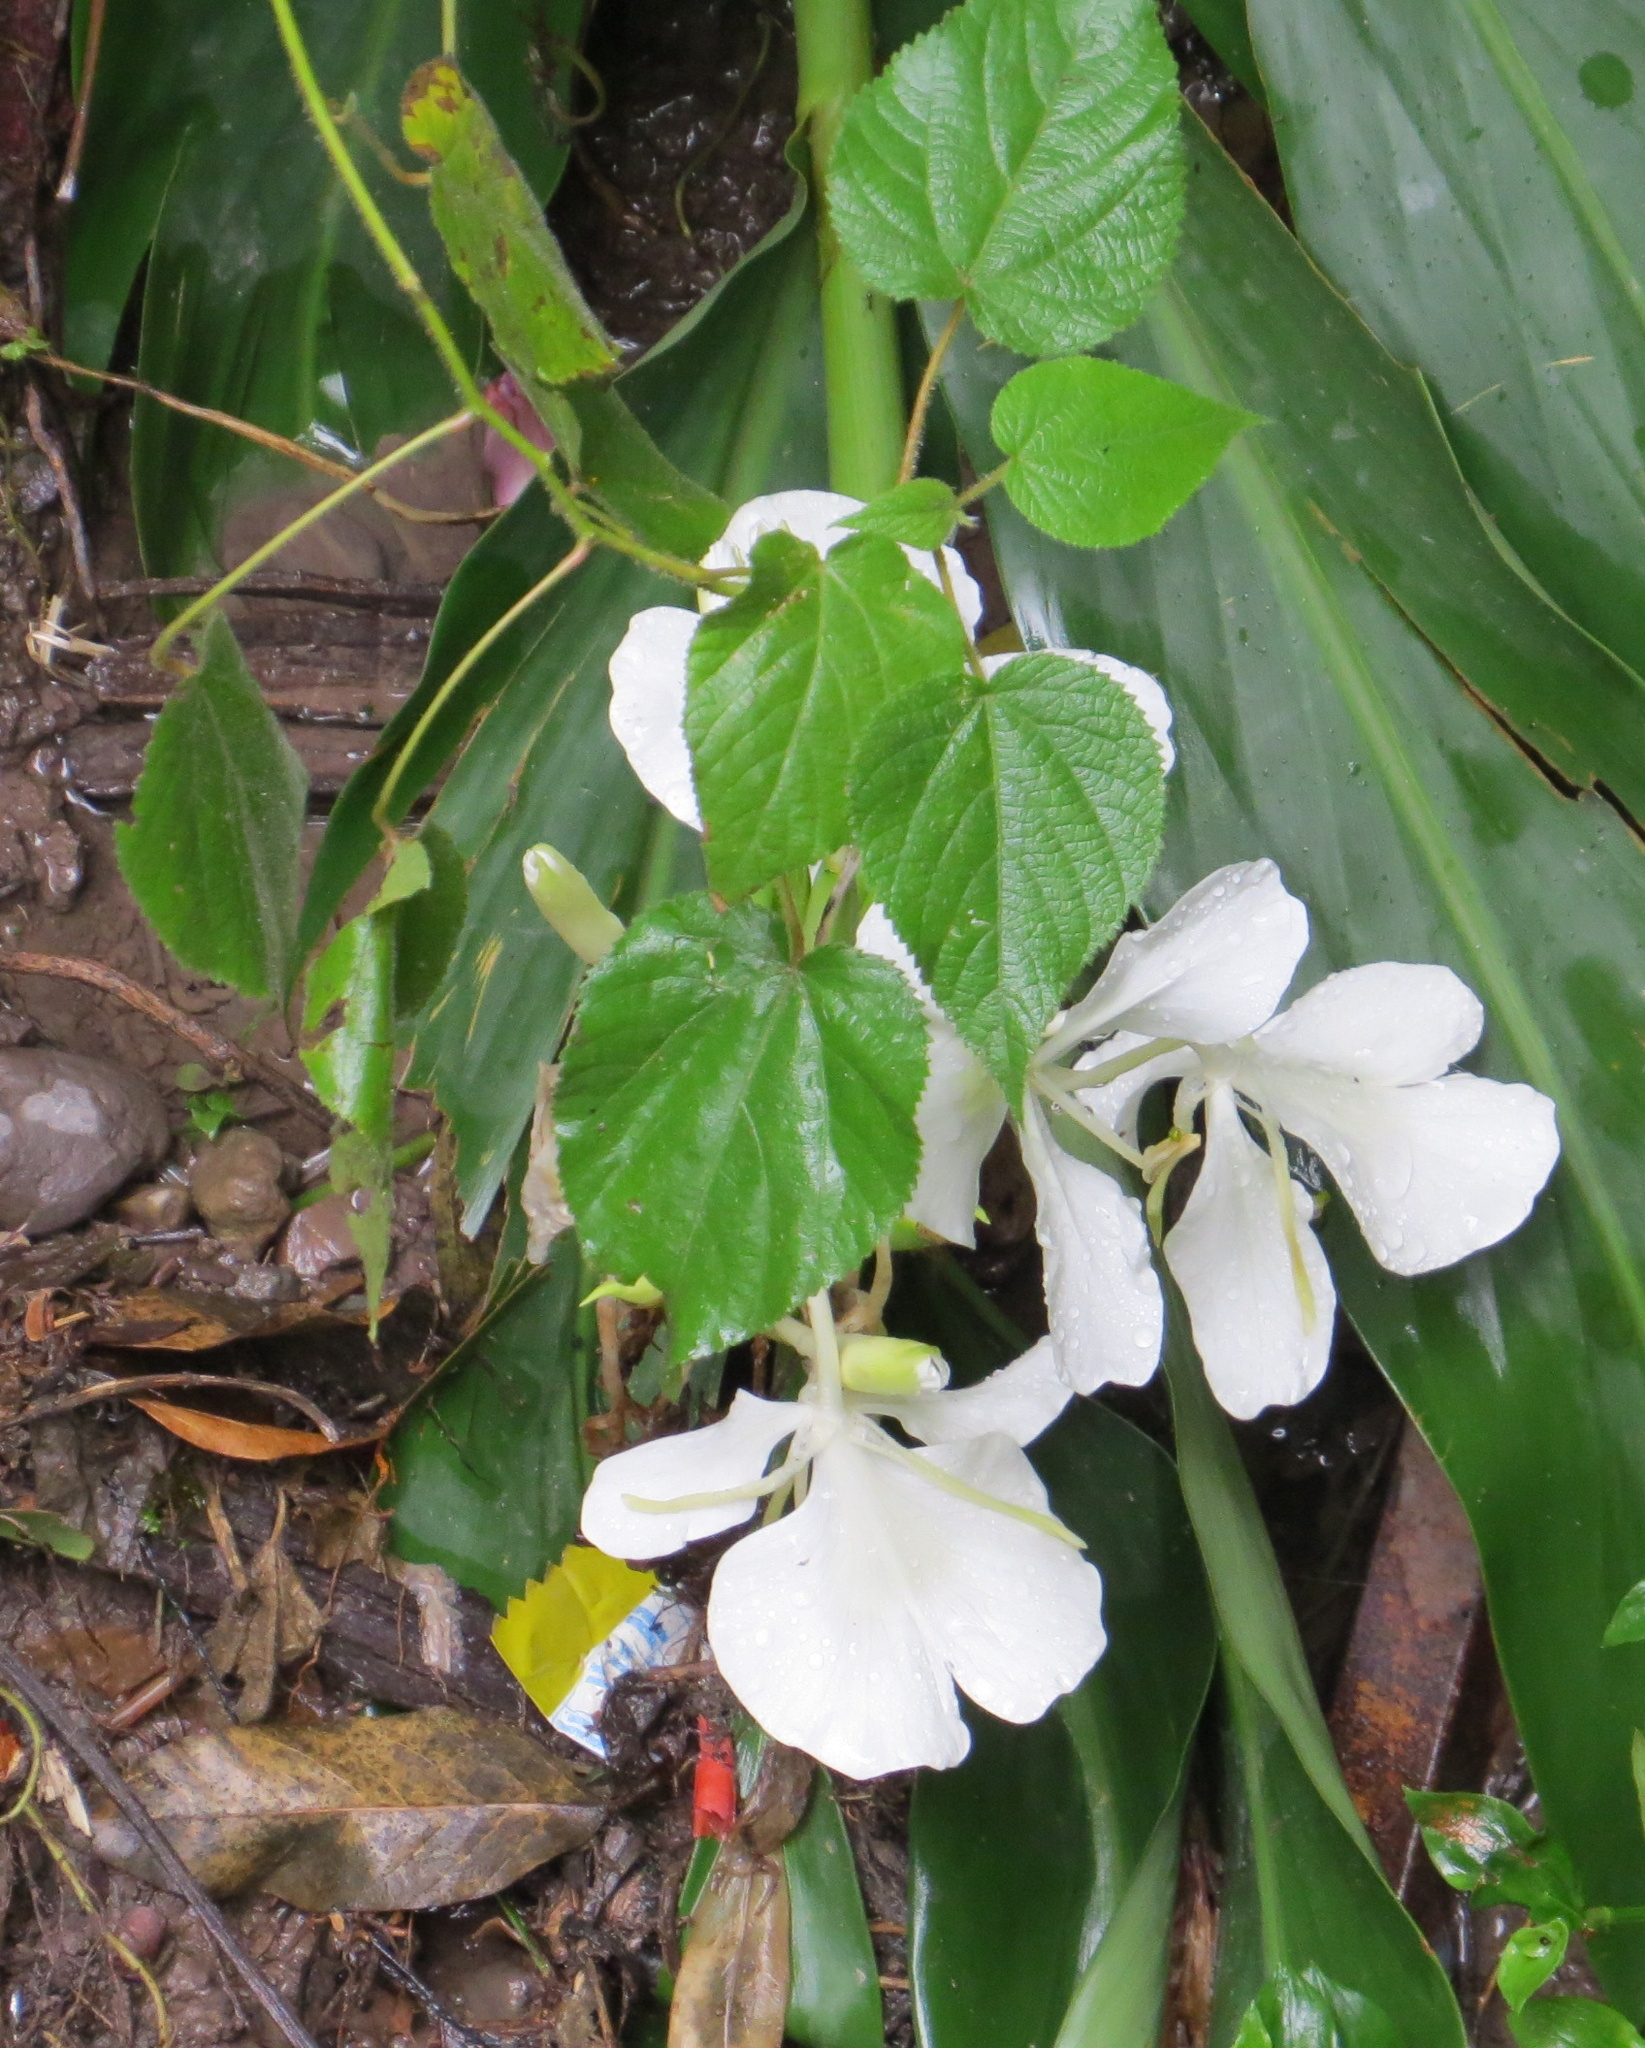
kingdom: Plantae
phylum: Tracheophyta
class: Liliopsida
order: Zingiberales
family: Zingiberaceae
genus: Hedychium
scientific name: Hedychium coronarium
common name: White garland-lily
